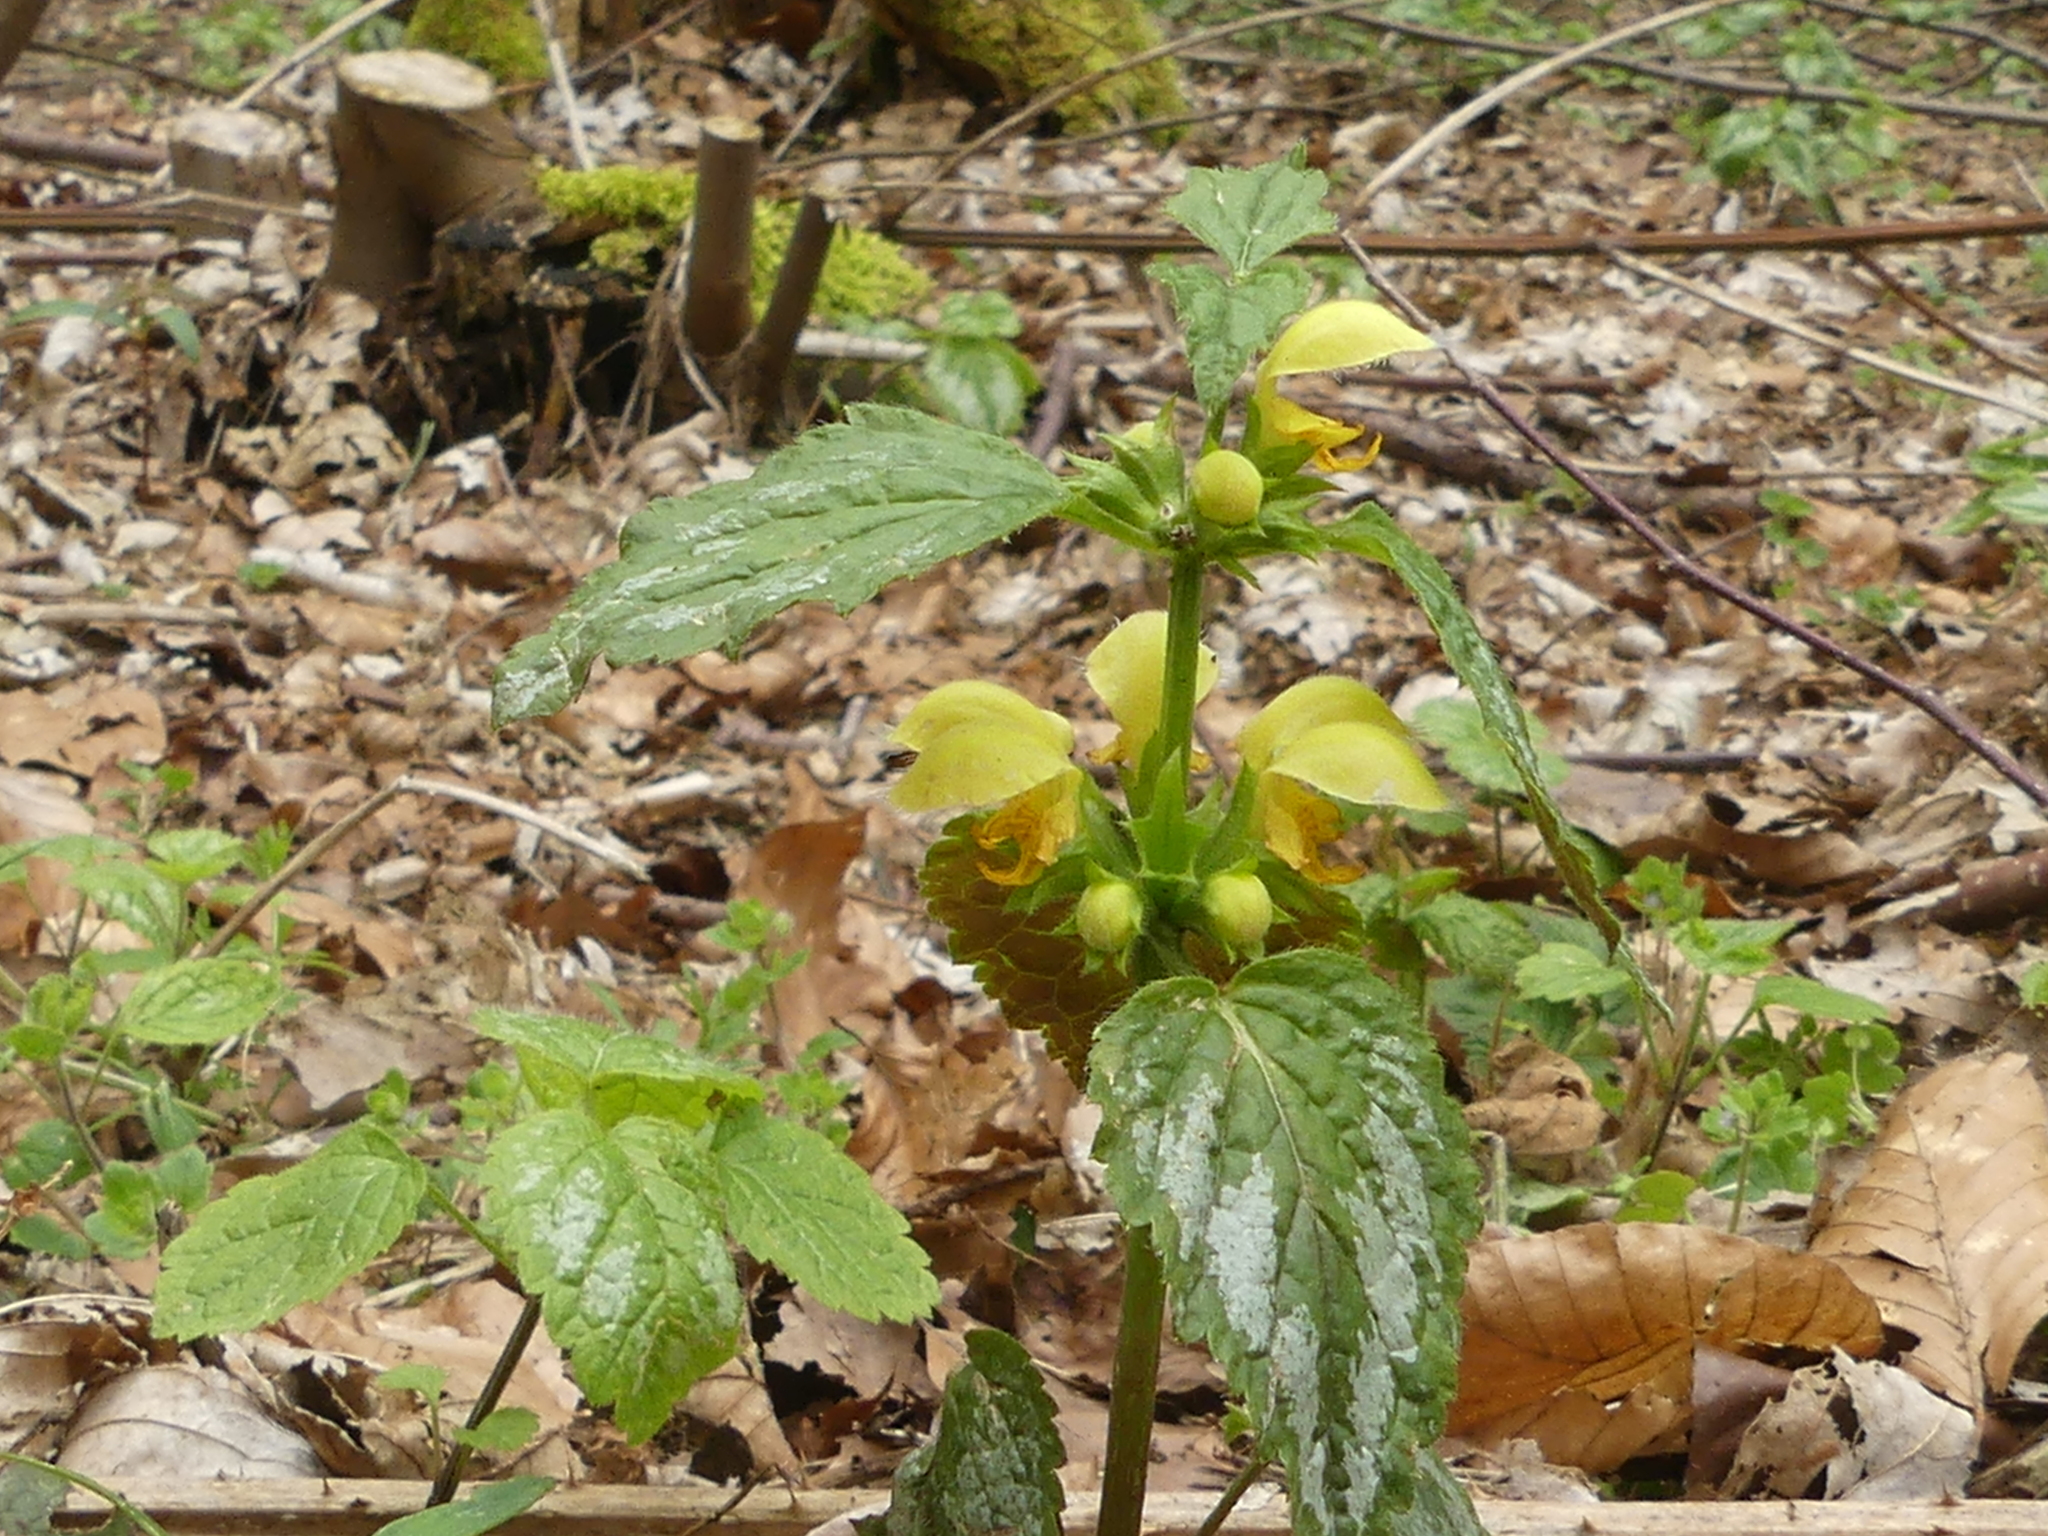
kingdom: Plantae
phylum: Tracheophyta
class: Magnoliopsida
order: Lamiales
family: Lamiaceae
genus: Lamium
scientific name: Lamium galeobdolon
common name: Yellow archangel
